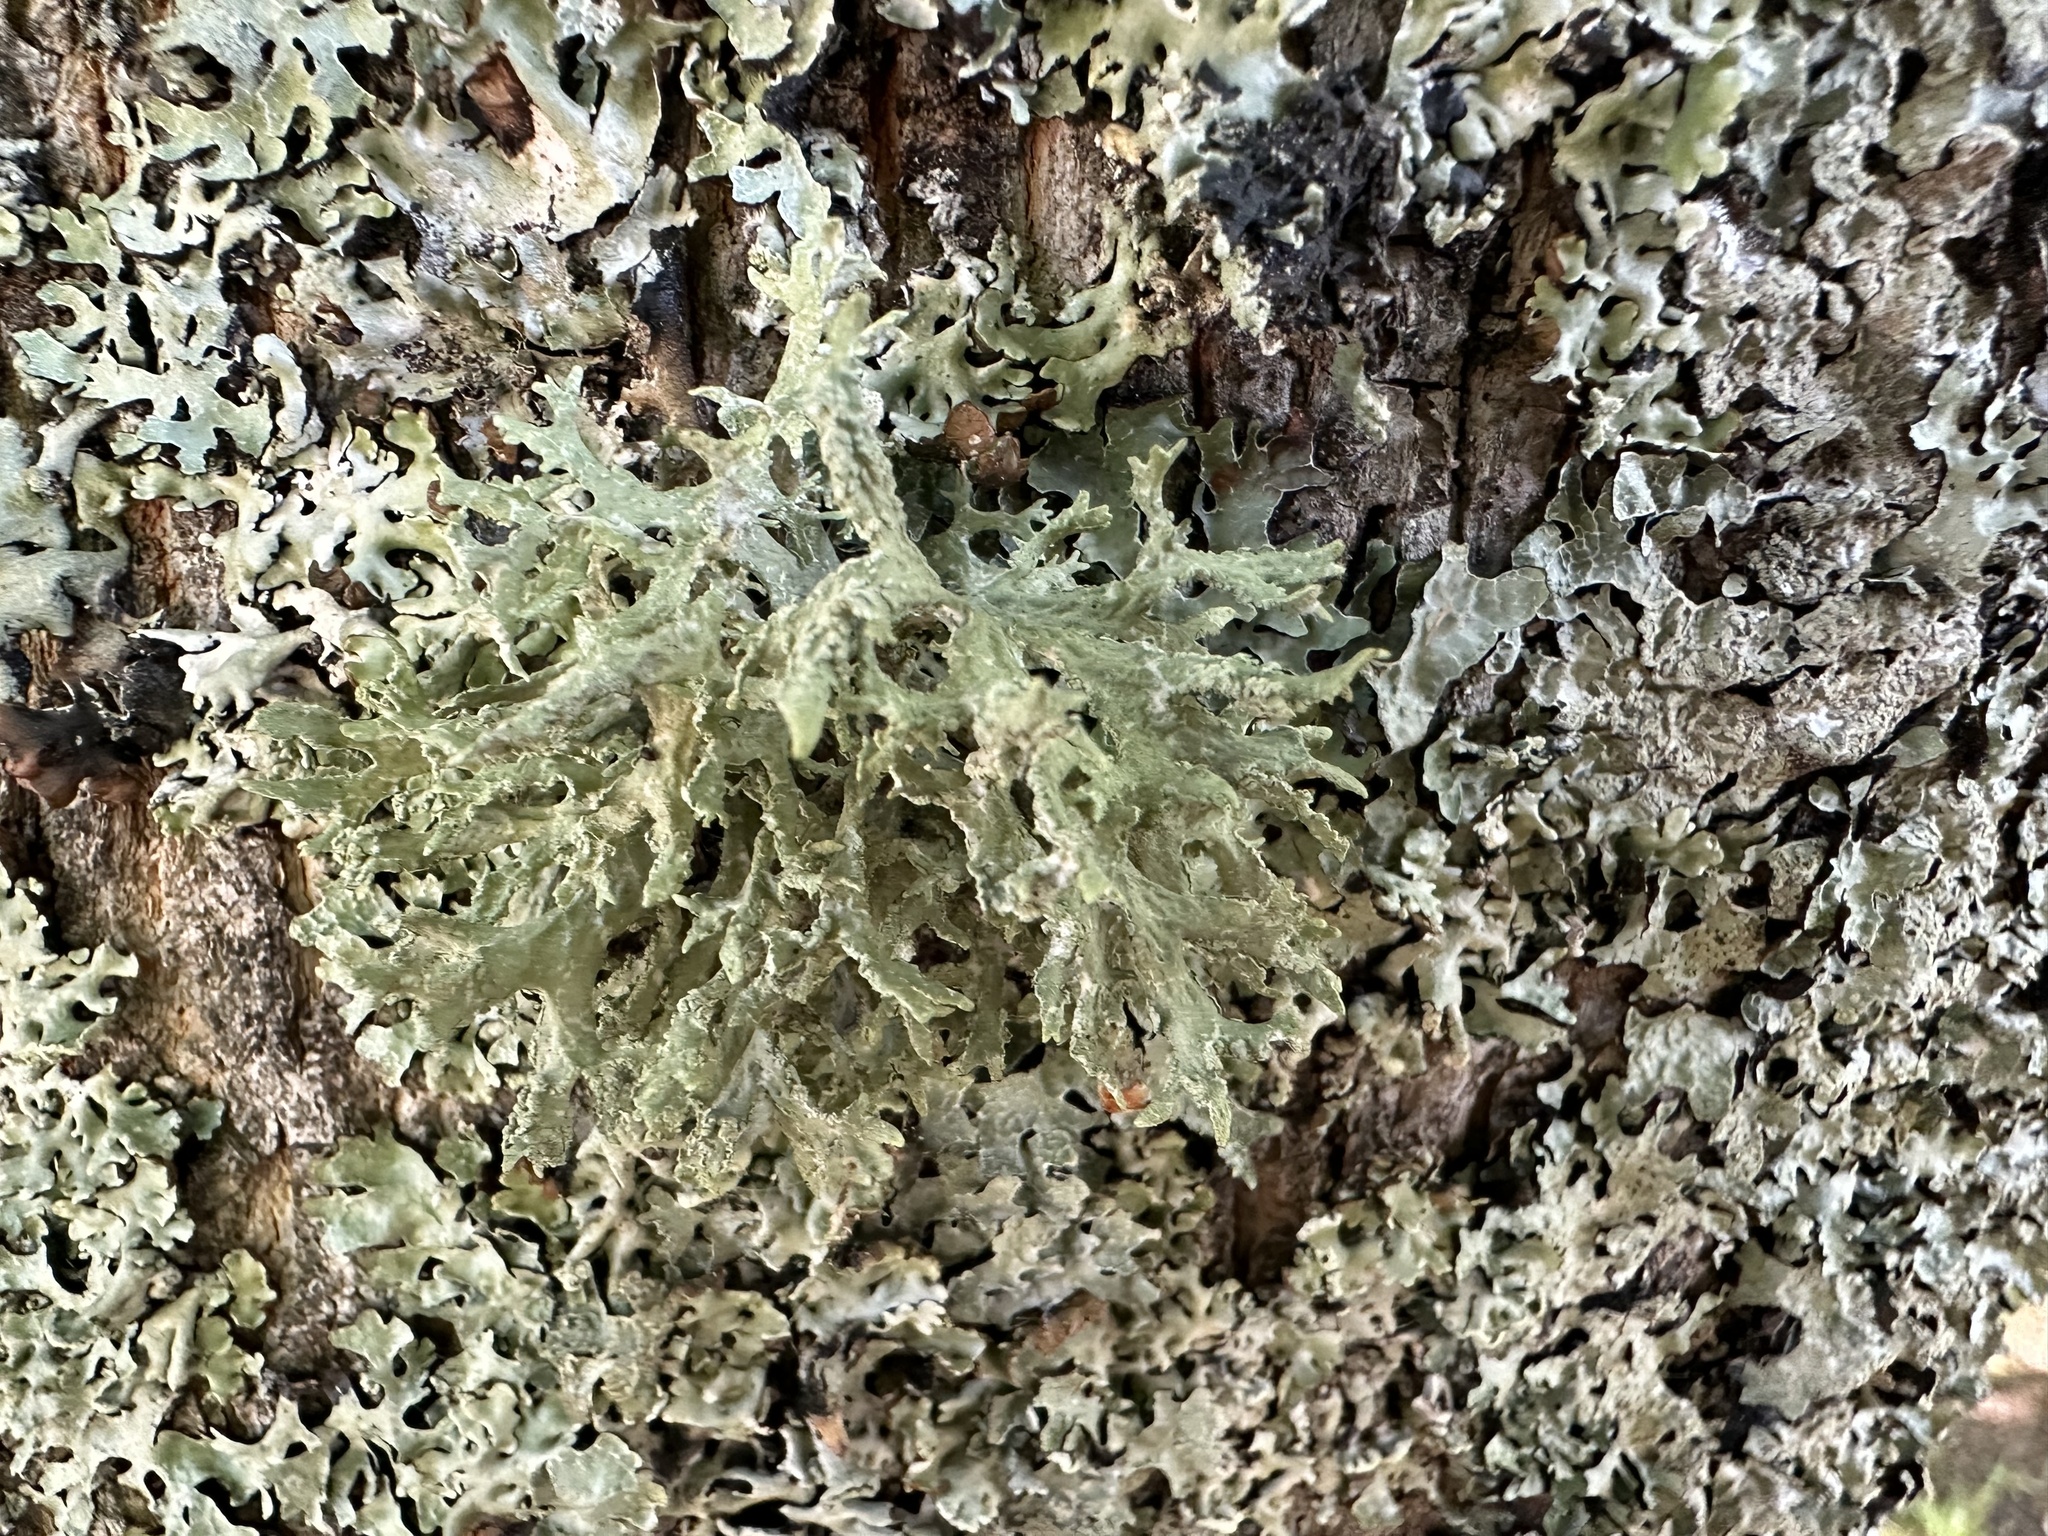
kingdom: Fungi
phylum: Ascomycota
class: Lecanoromycetes
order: Lecanorales
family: Parmeliaceae
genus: Evernia
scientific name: Evernia prunastri
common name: Oak moss
